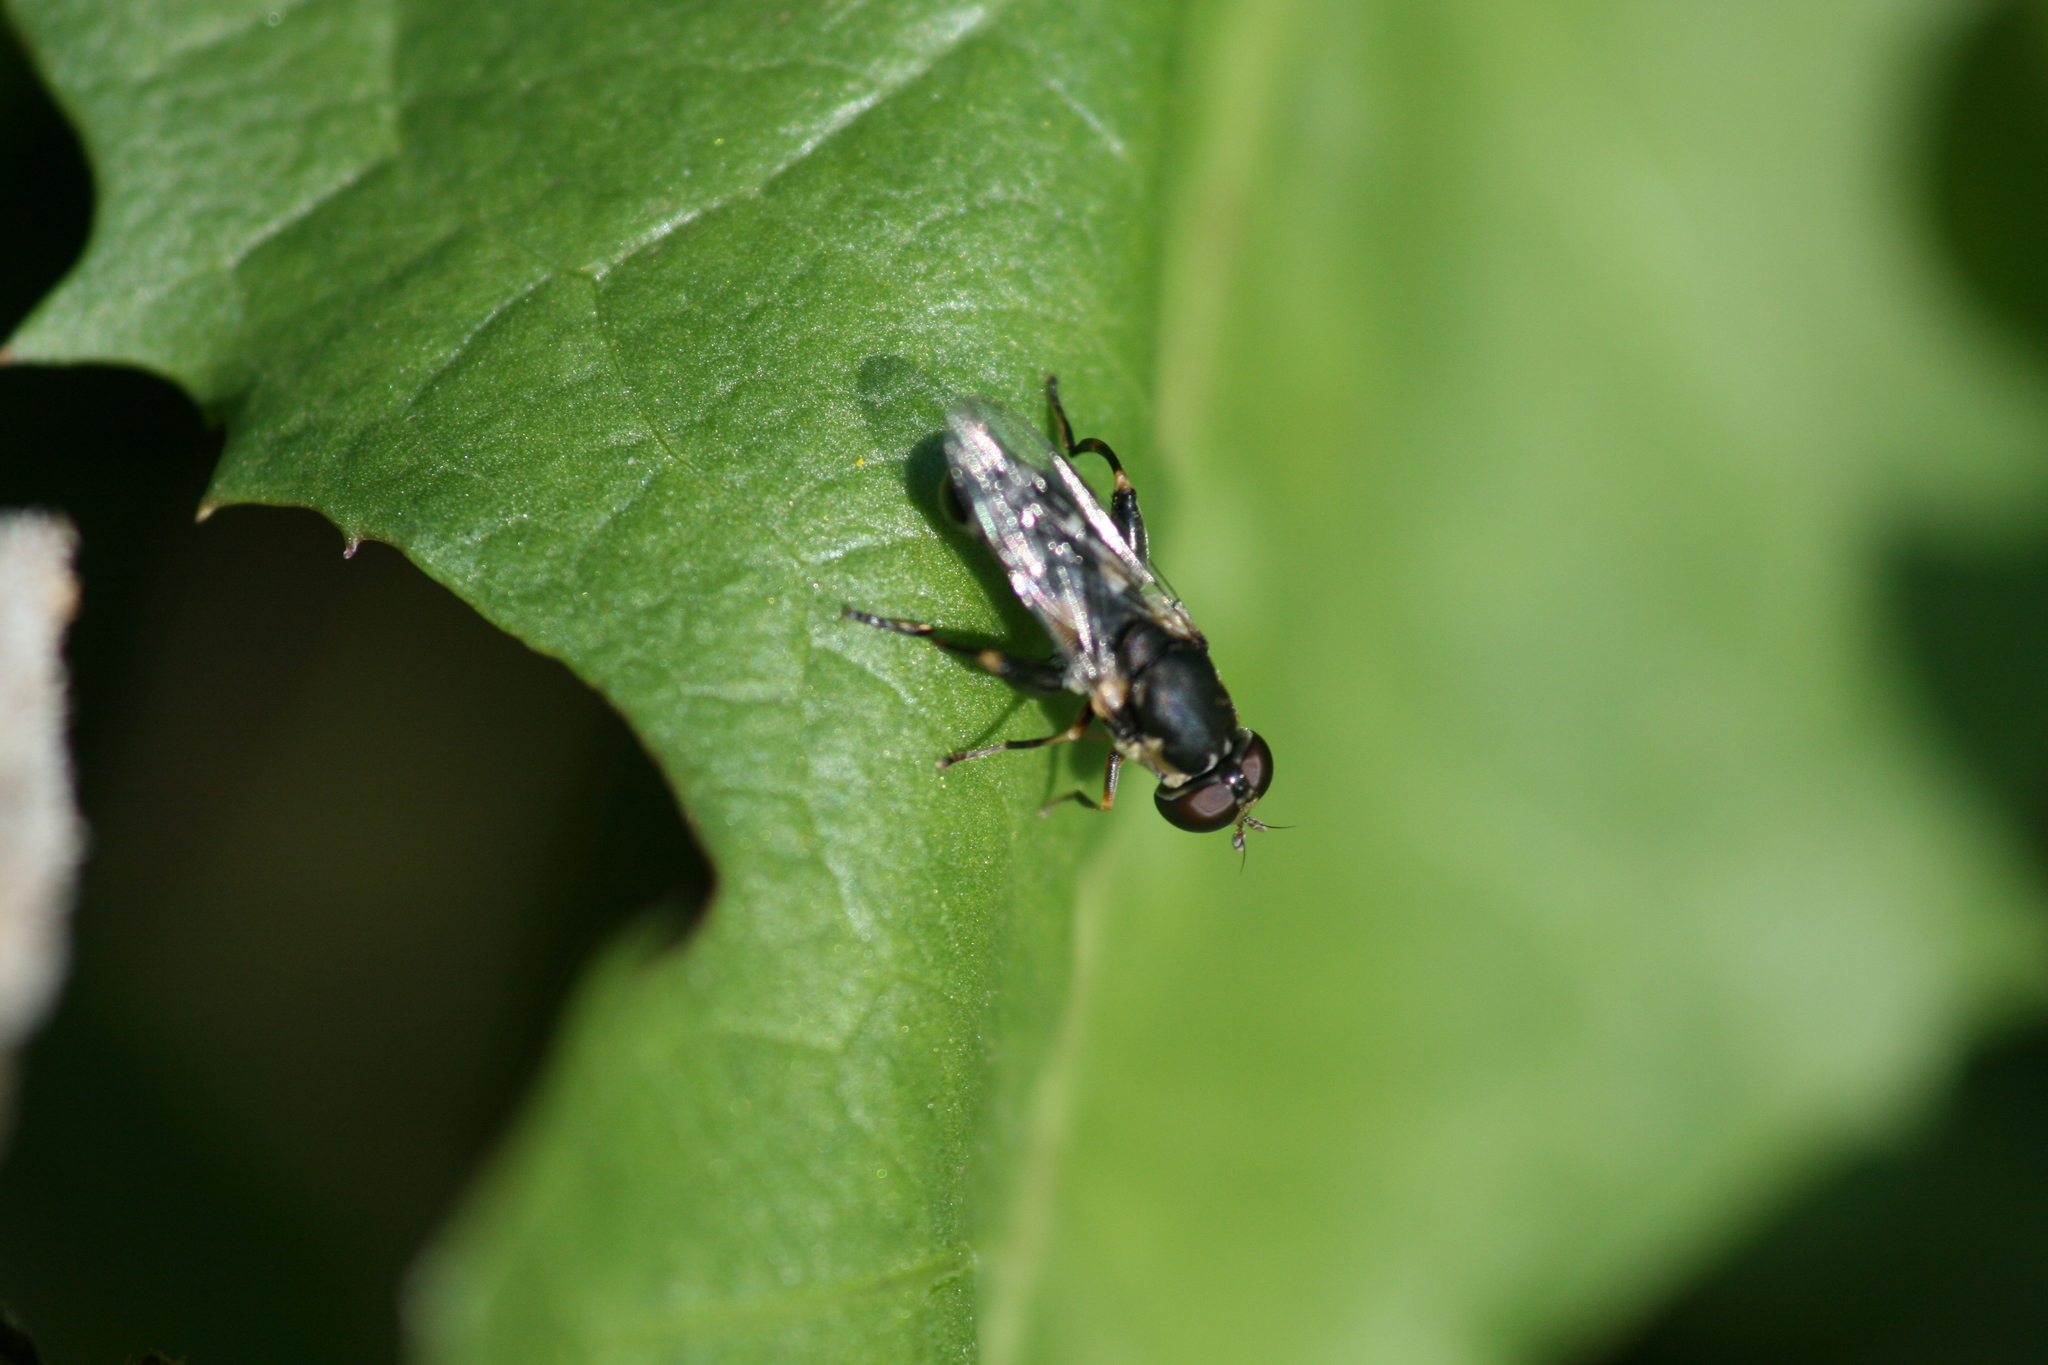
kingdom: Animalia
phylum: Arthropoda
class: Insecta
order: Diptera
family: Syrphidae
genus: Syritta
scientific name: Syritta pipiens
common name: Hover fly
